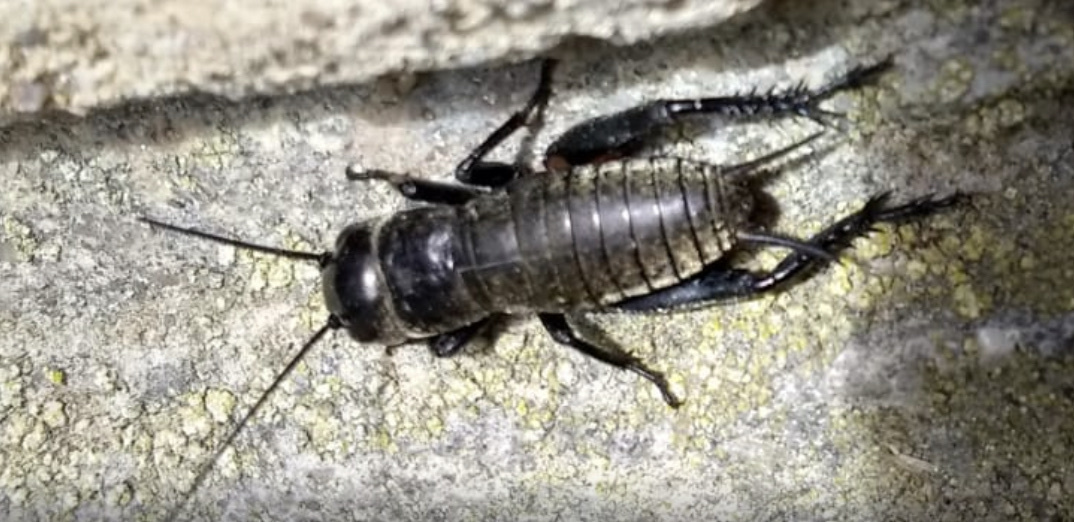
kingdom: Animalia
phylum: Arthropoda
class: Insecta
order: Orthoptera
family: Gryllidae
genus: Gryllus
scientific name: Gryllus campestris
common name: Field cricket
